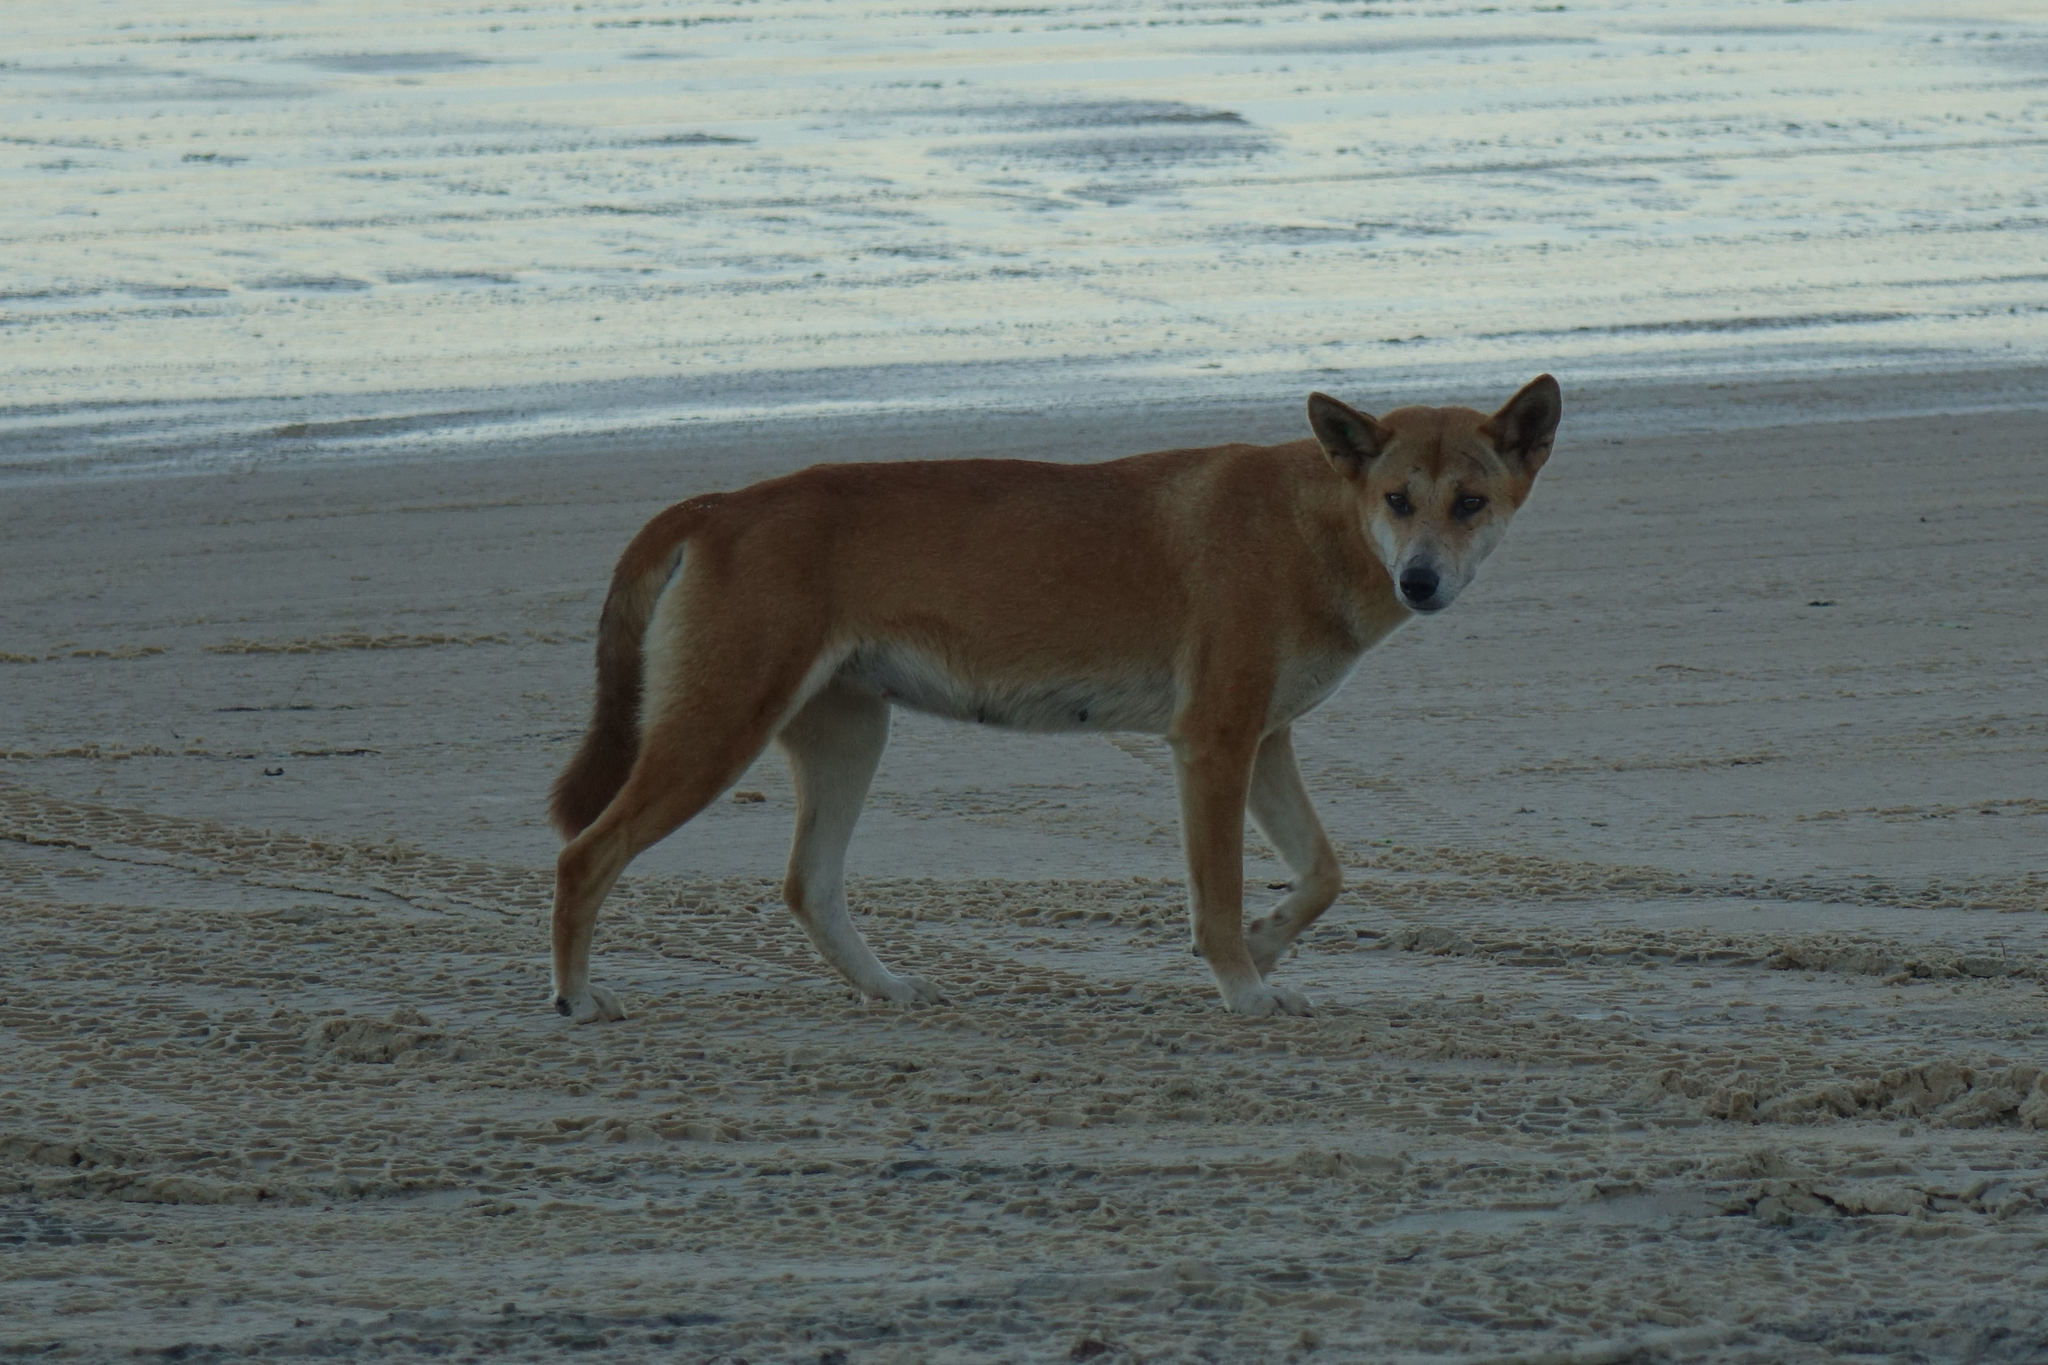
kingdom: Animalia
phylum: Chordata
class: Mammalia
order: Carnivora
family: Canidae
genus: Canis
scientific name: Canis lupus
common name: Gray wolf
